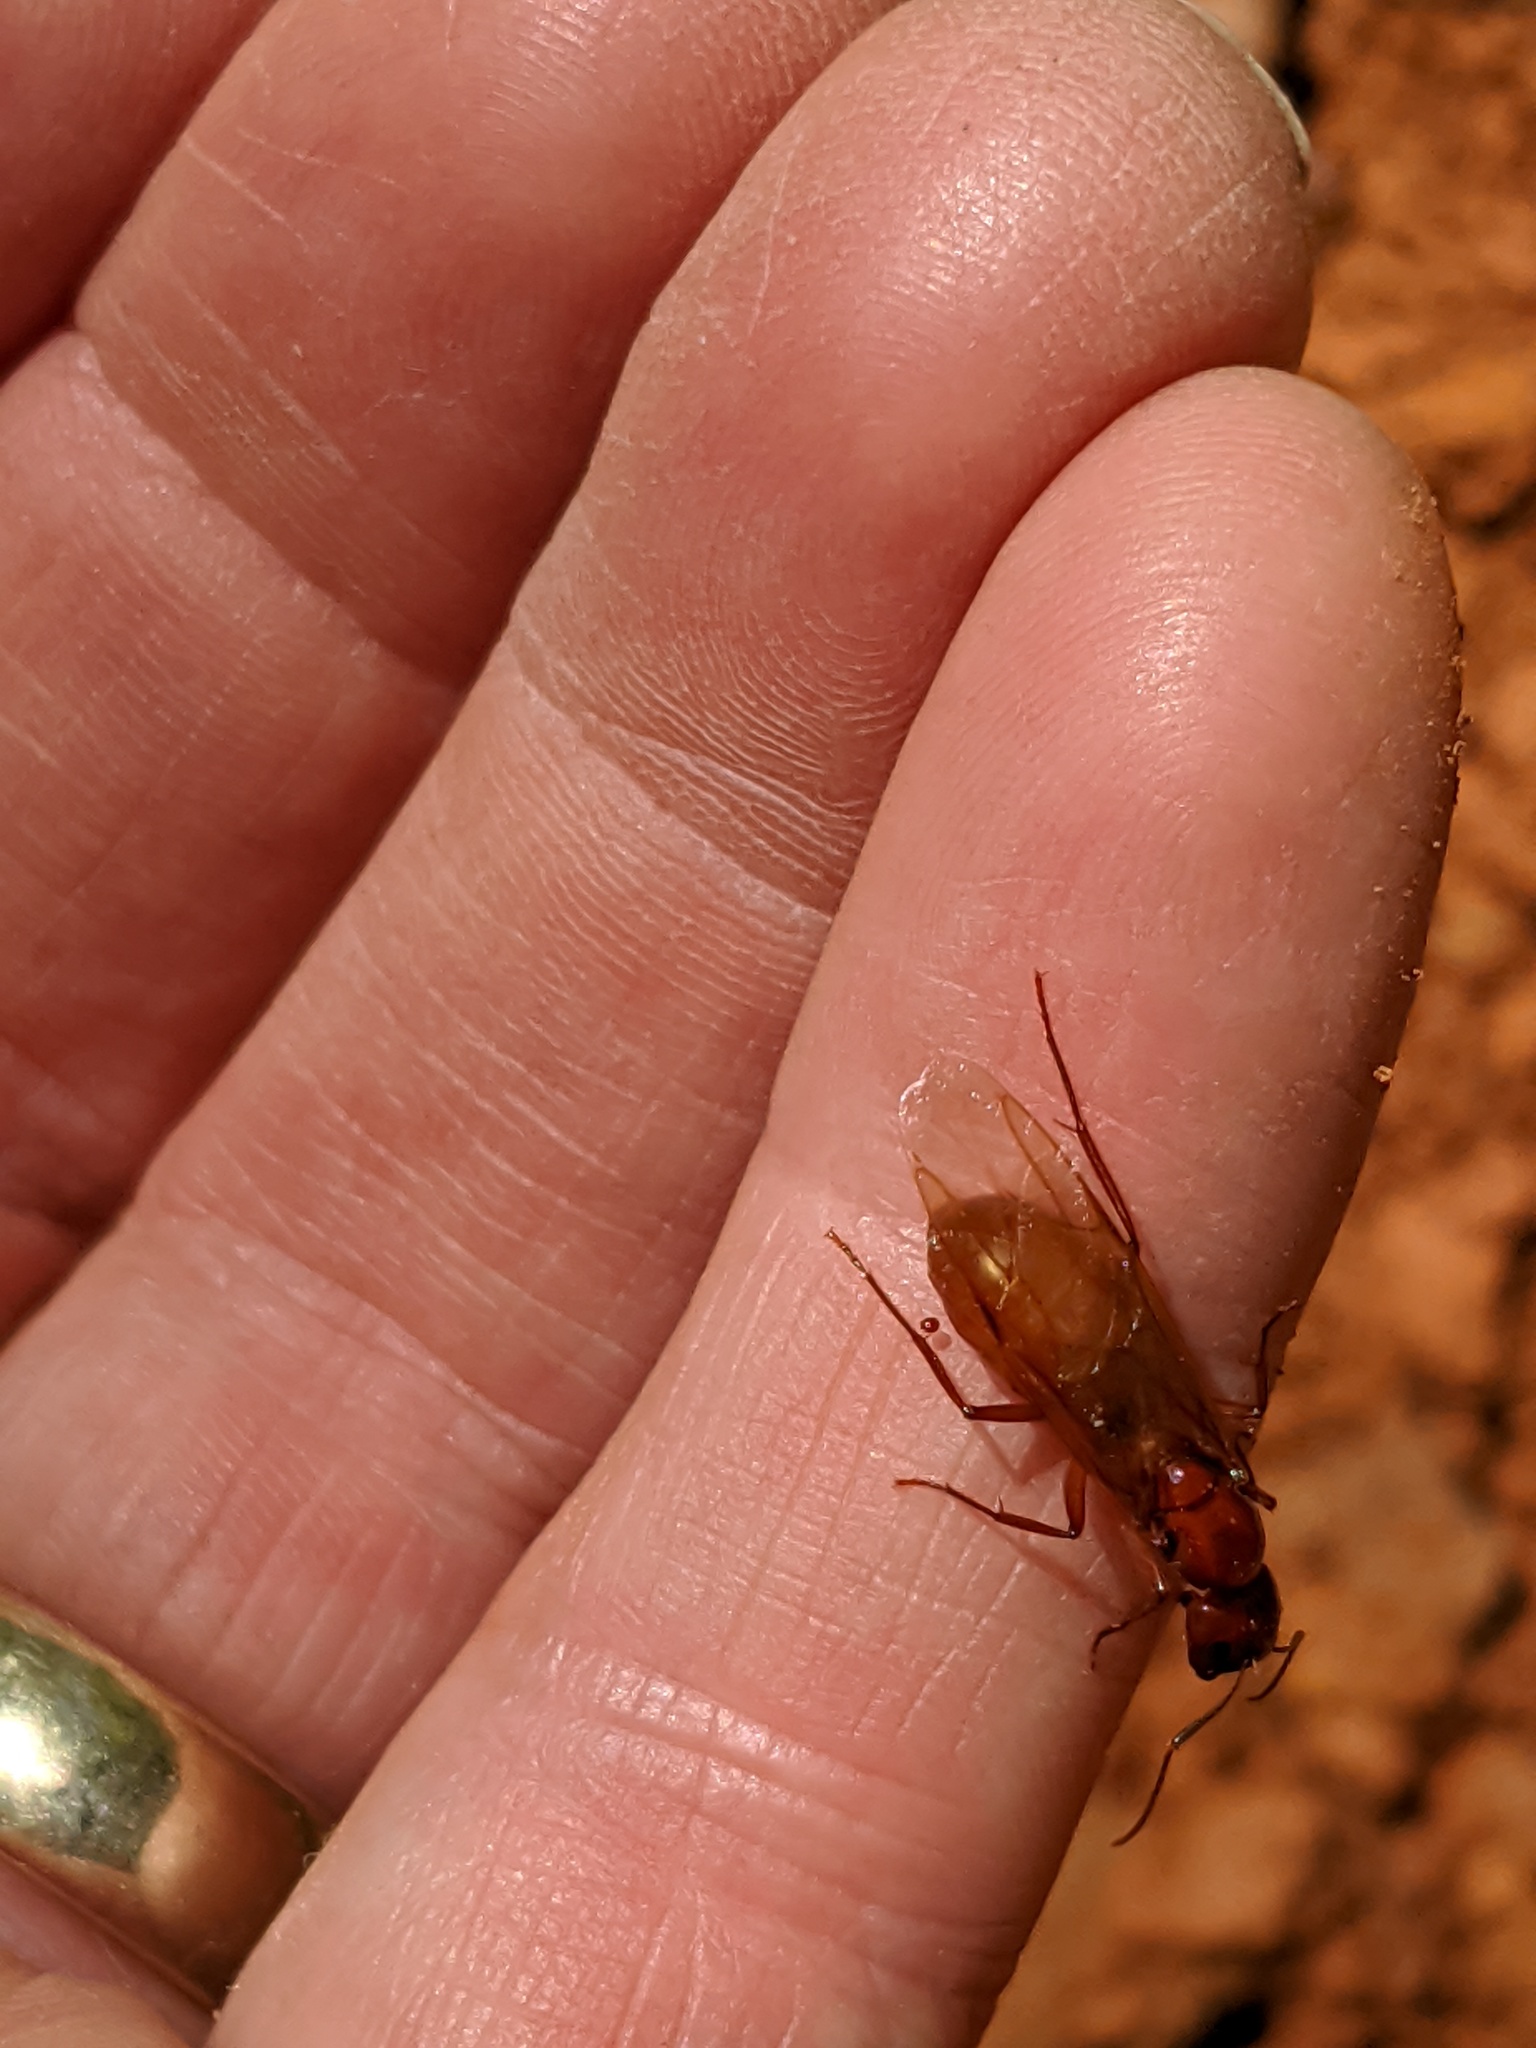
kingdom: Animalia
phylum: Arthropoda
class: Insecta
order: Hymenoptera
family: Formicidae
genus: Camponotus
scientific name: Camponotus castaneus
